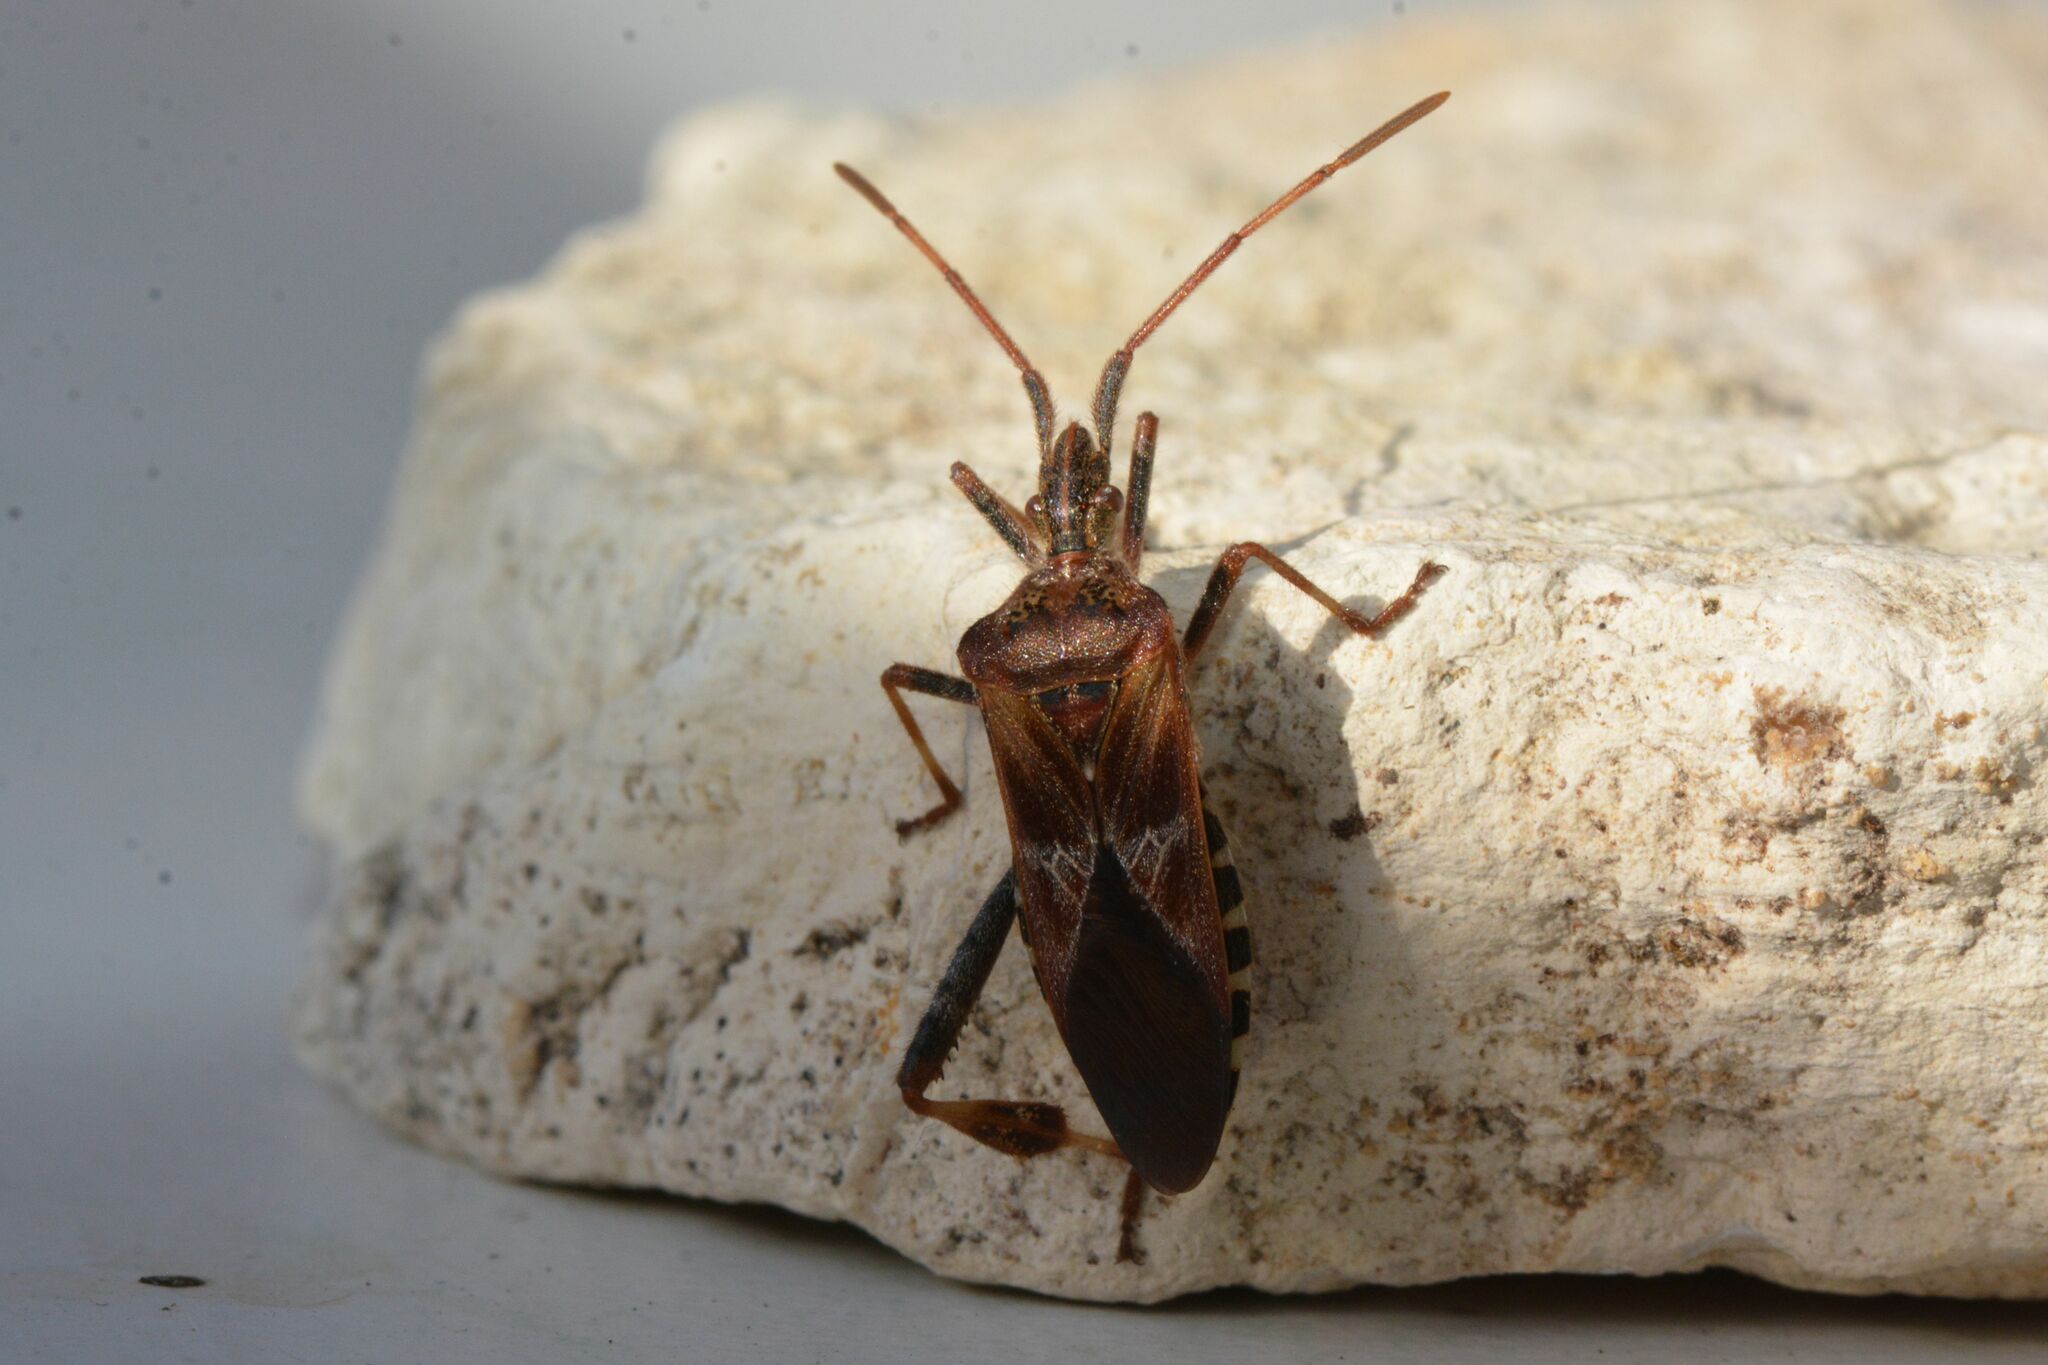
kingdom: Animalia
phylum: Arthropoda
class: Insecta
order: Hemiptera
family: Coreidae
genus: Leptoglossus
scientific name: Leptoglossus occidentalis
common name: Western conifer-seed bug
